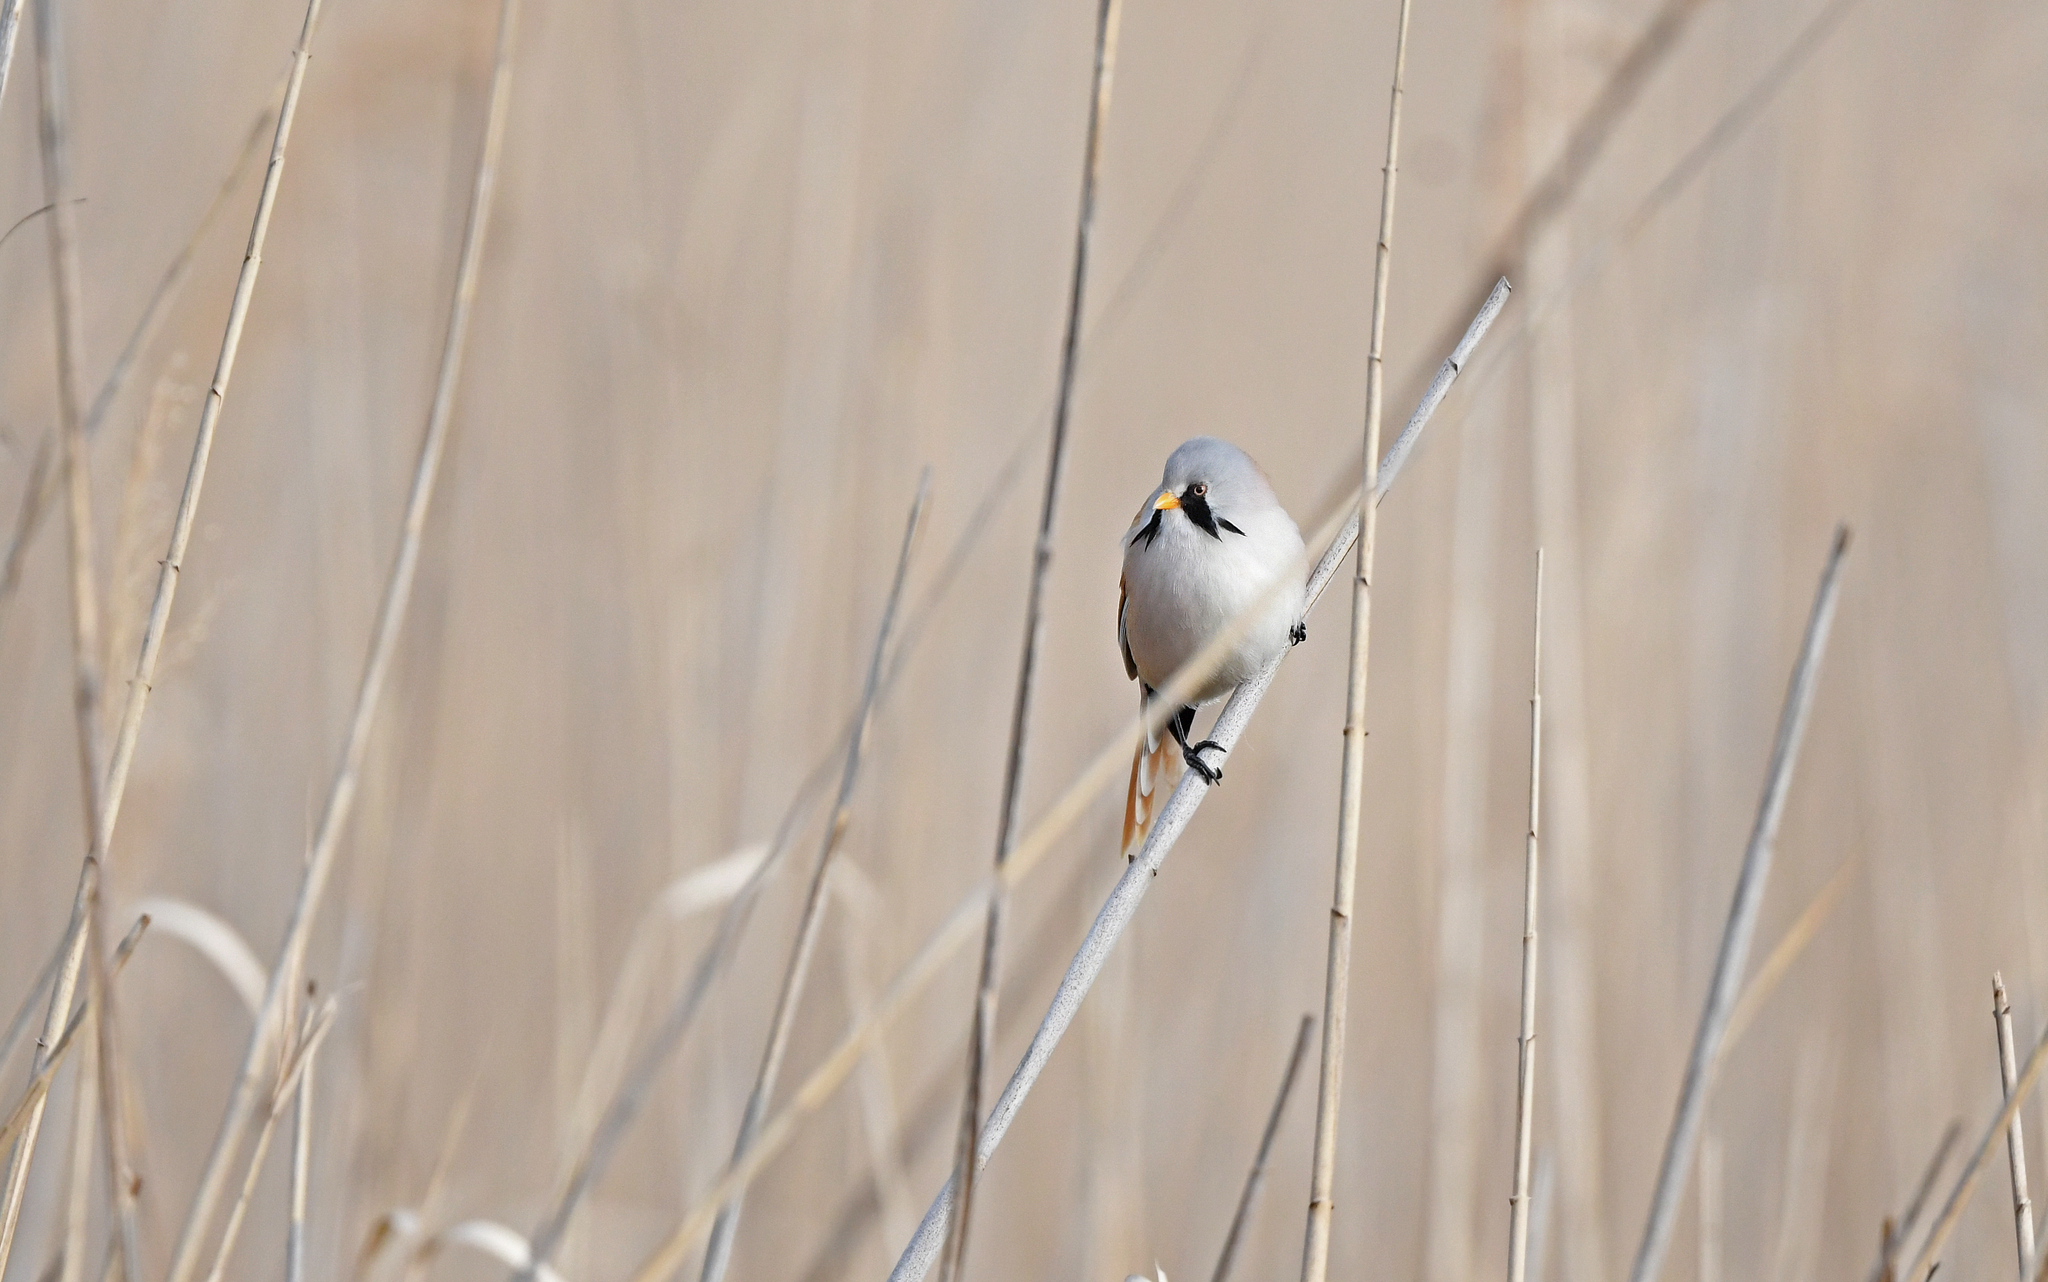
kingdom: Animalia
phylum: Chordata
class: Aves
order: Passeriformes
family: Panuridae
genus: Panurus
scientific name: Panurus biarmicus
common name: Bearded reedling
